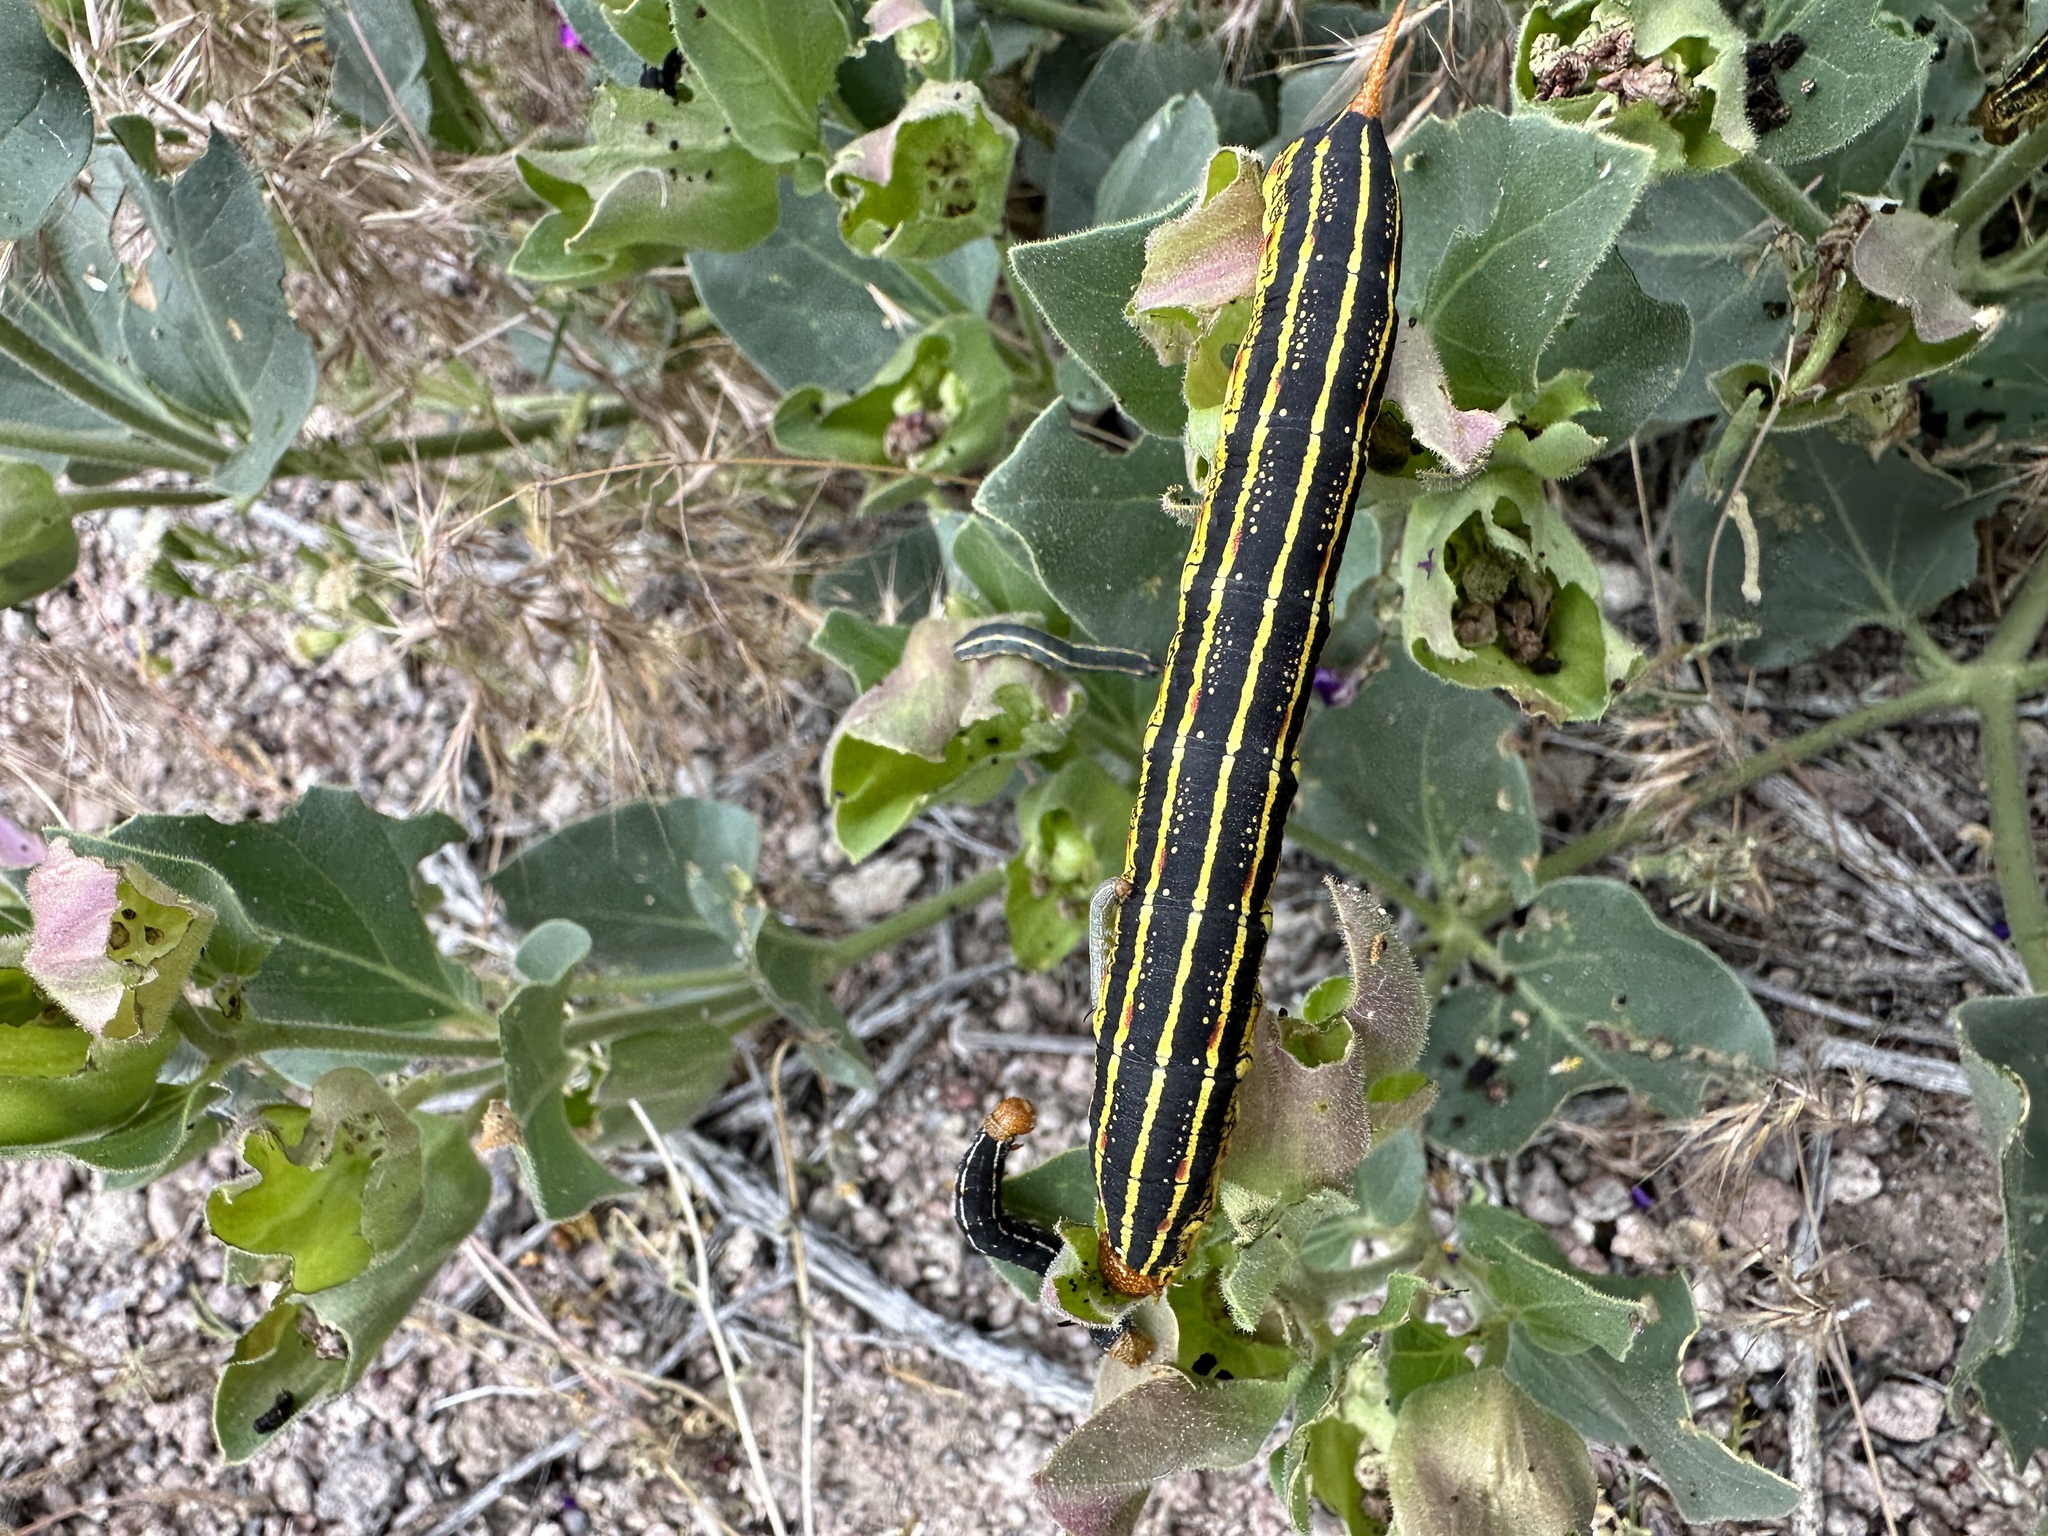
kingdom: Animalia
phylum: Arthropoda
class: Insecta
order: Lepidoptera
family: Sphingidae
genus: Hyles
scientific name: Hyles lineata
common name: White-lined sphinx
